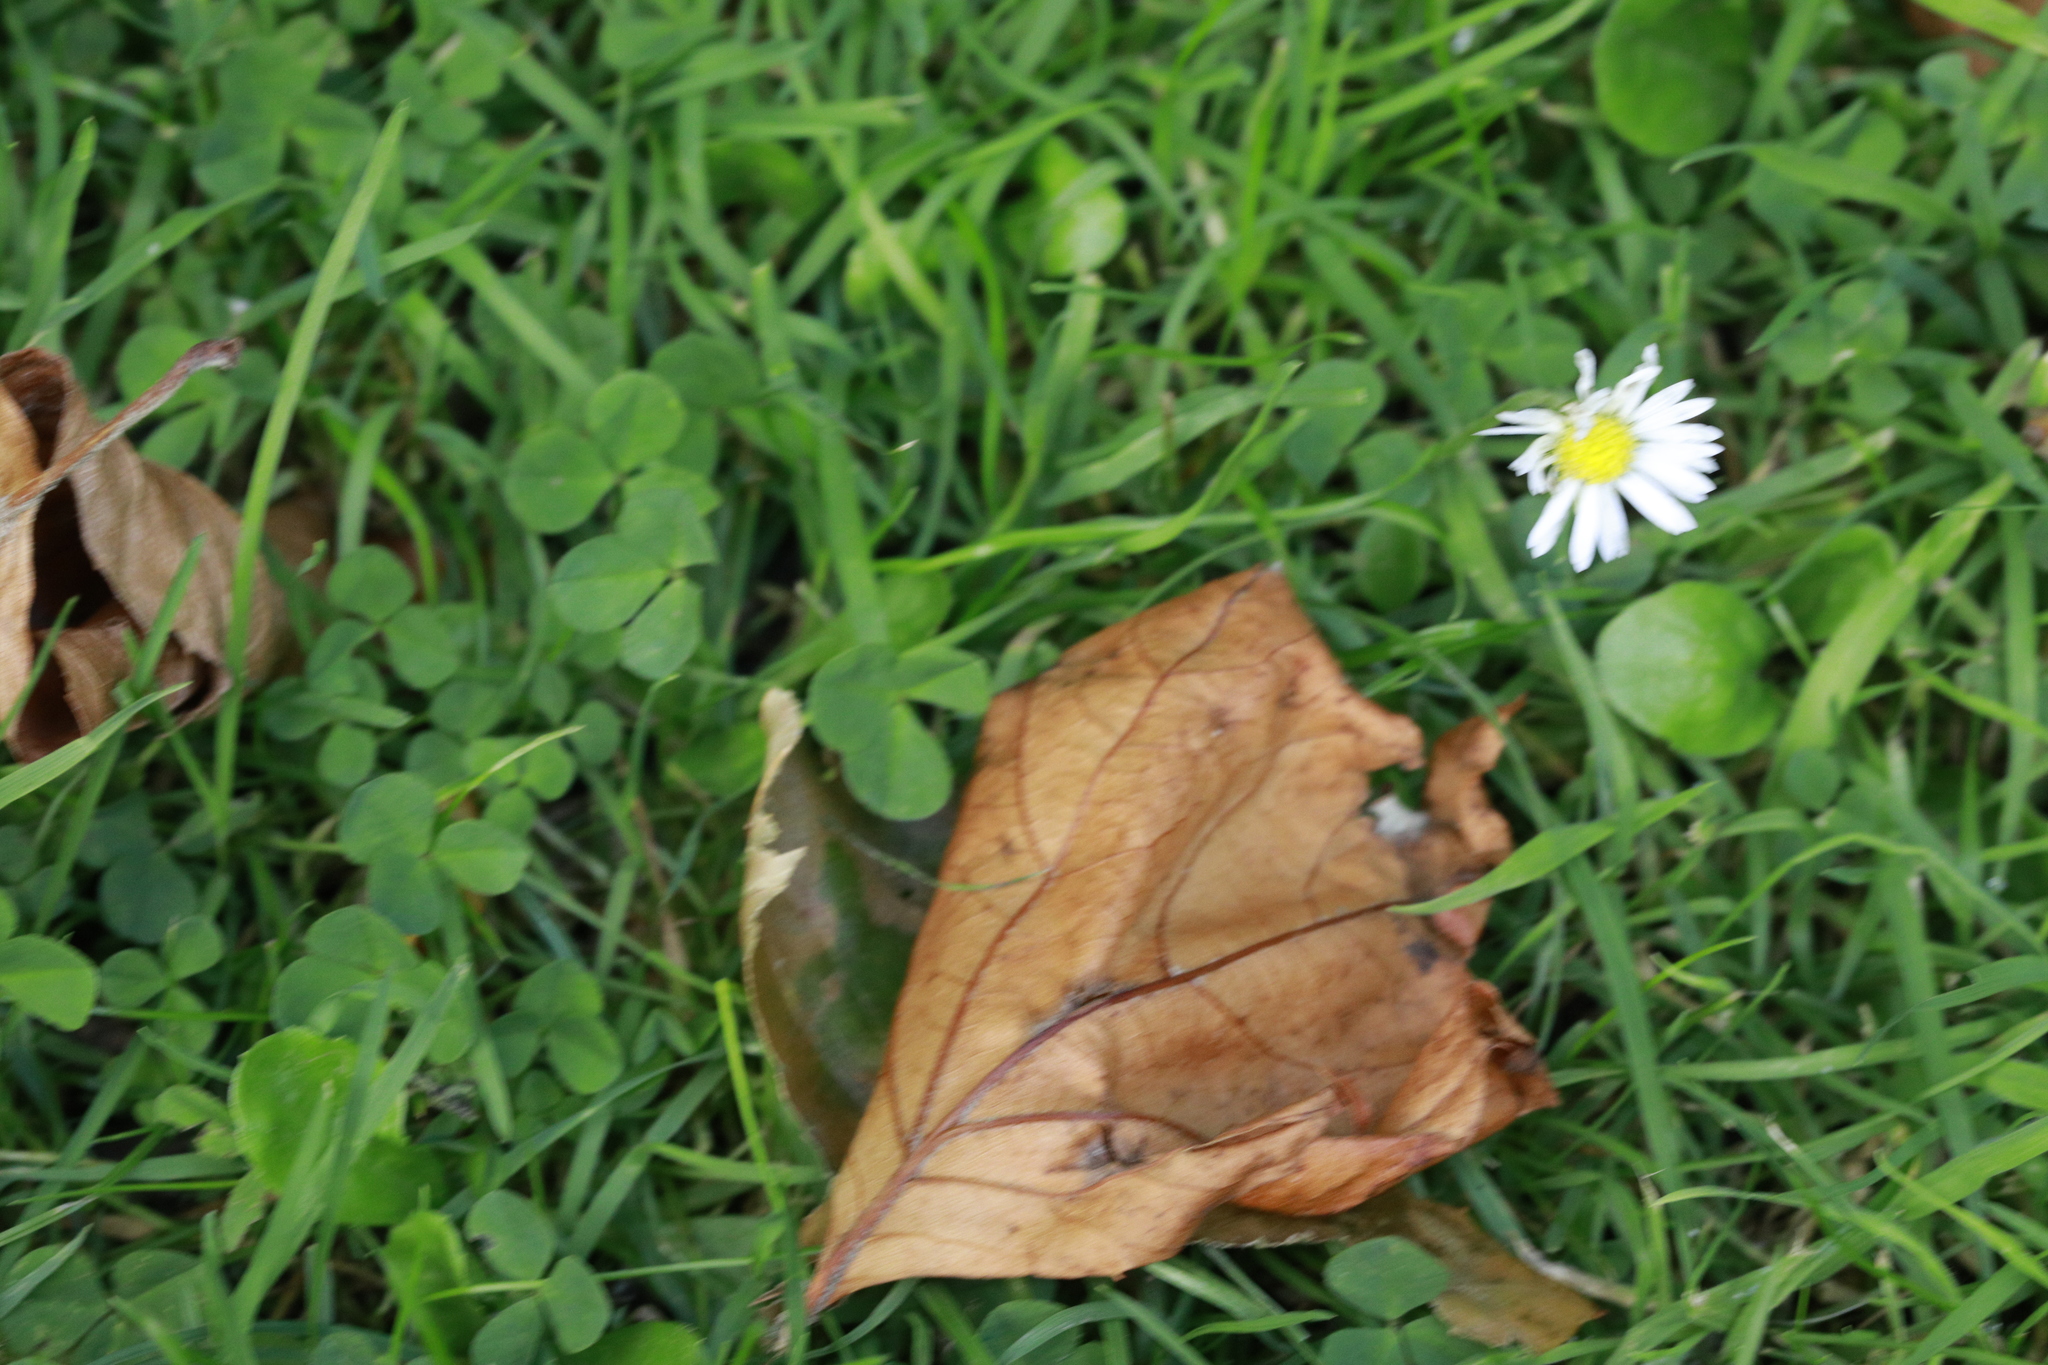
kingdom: Plantae
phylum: Tracheophyta
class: Magnoliopsida
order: Asterales
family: Asteraceae
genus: Bellis
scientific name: Bellis perennis
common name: Lawndaisy
